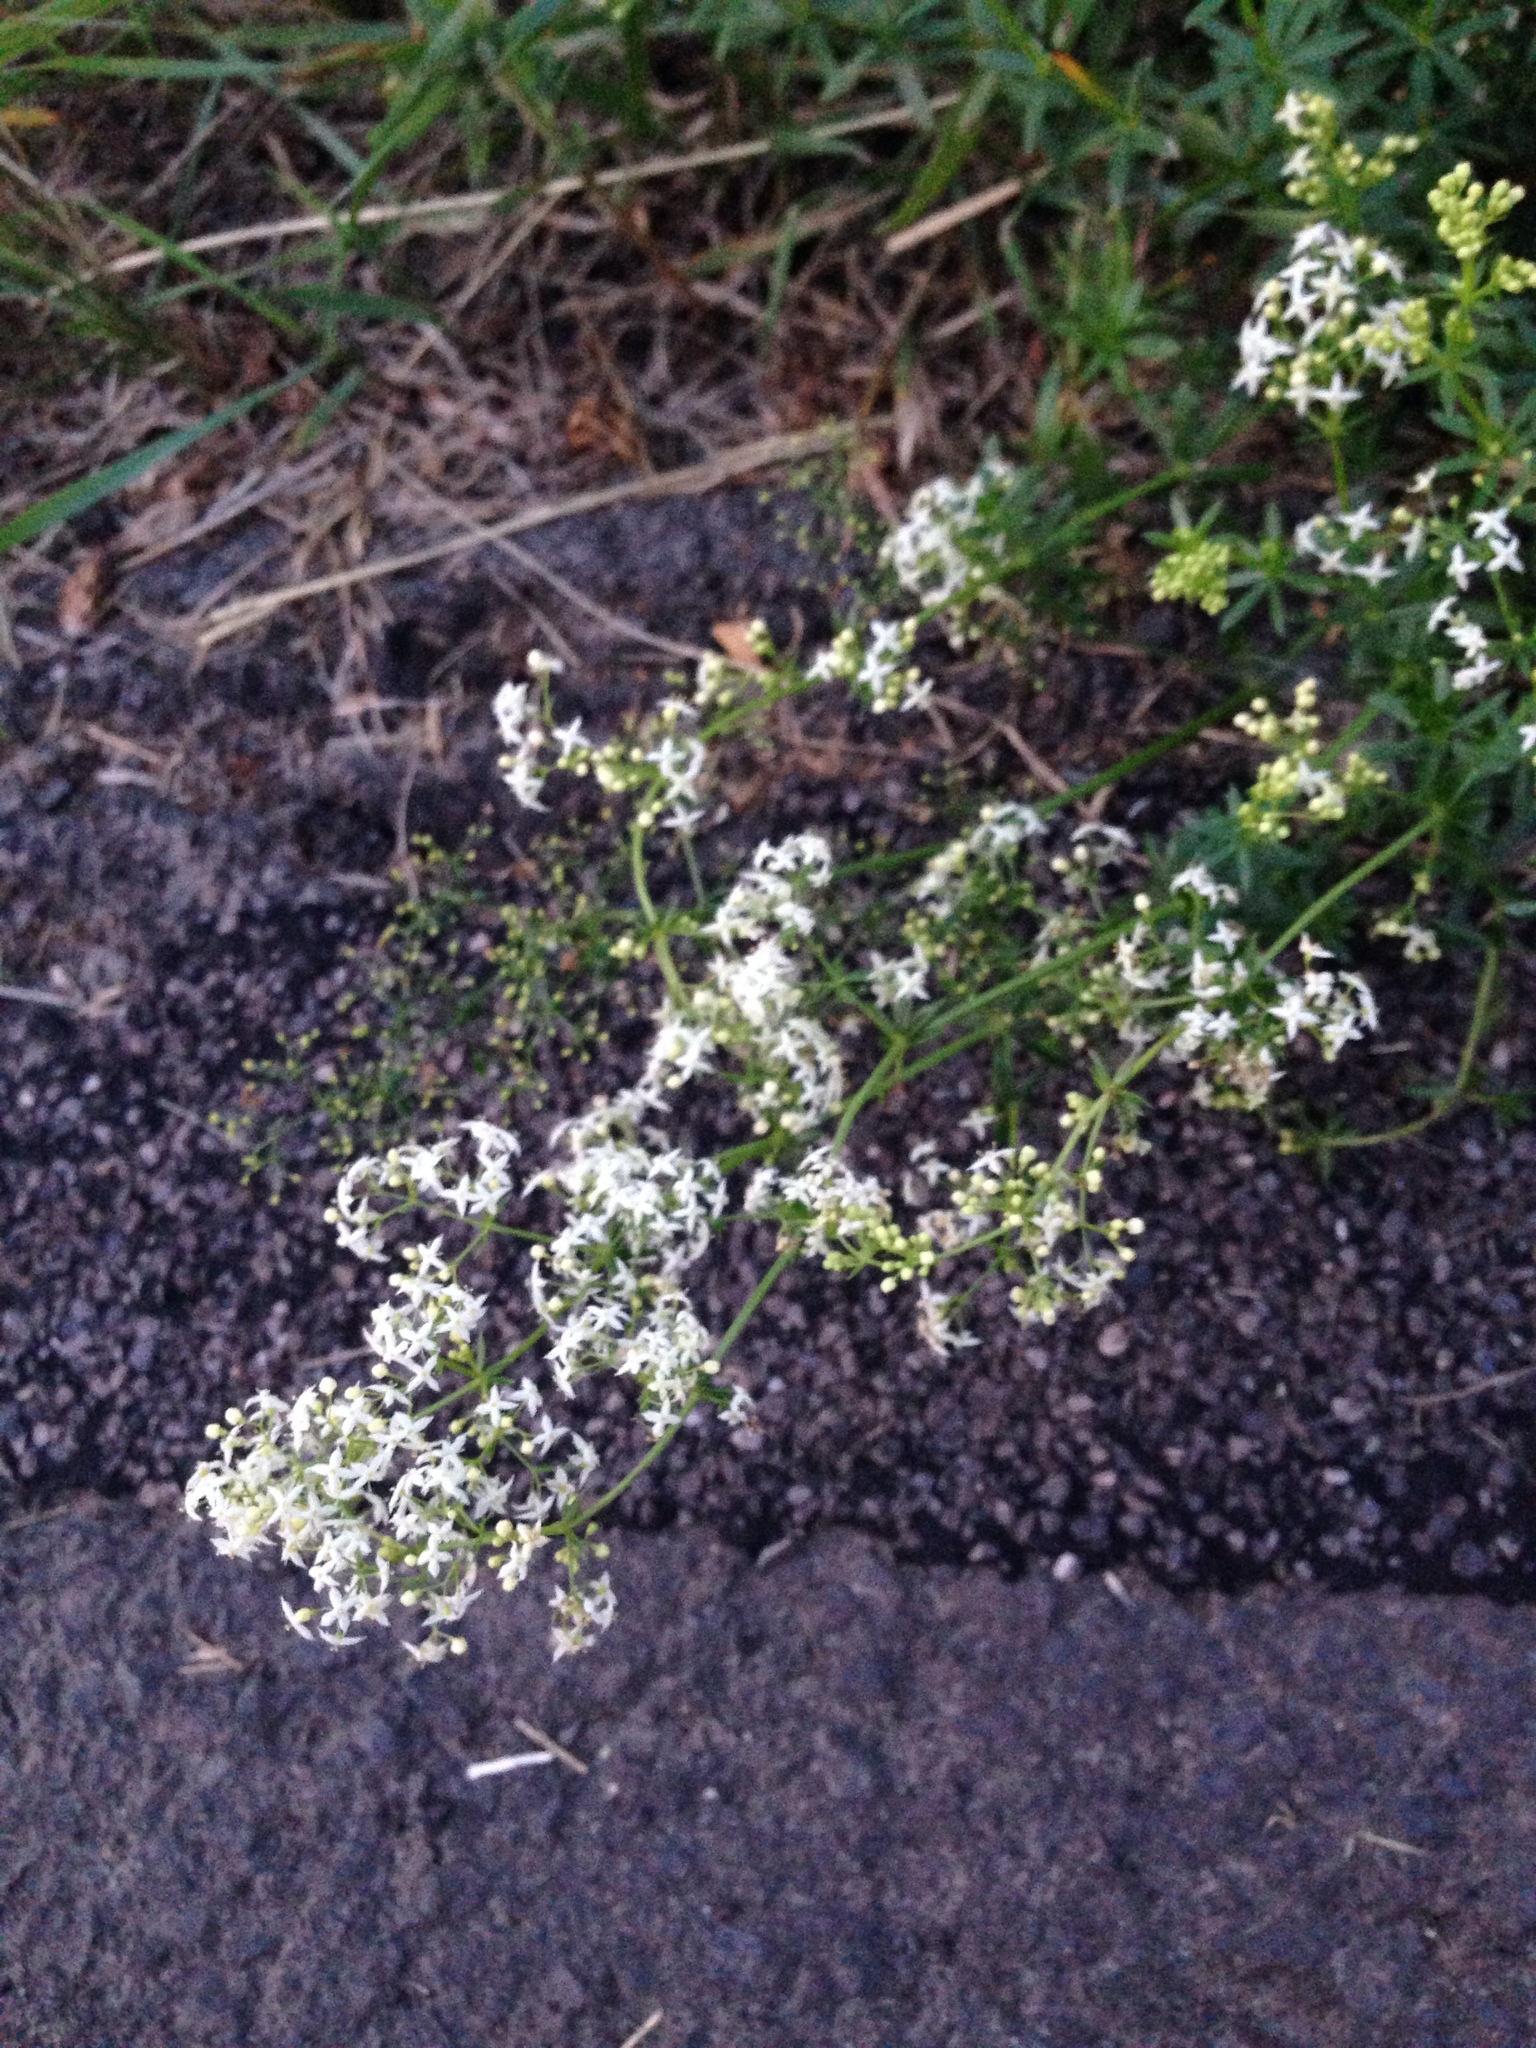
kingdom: Plantae
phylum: Tracheophyta
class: Magnoliopsida
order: Gentianales
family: Rubiaceae
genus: Galium
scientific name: Galium mollugo
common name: Hedge bedstraw
